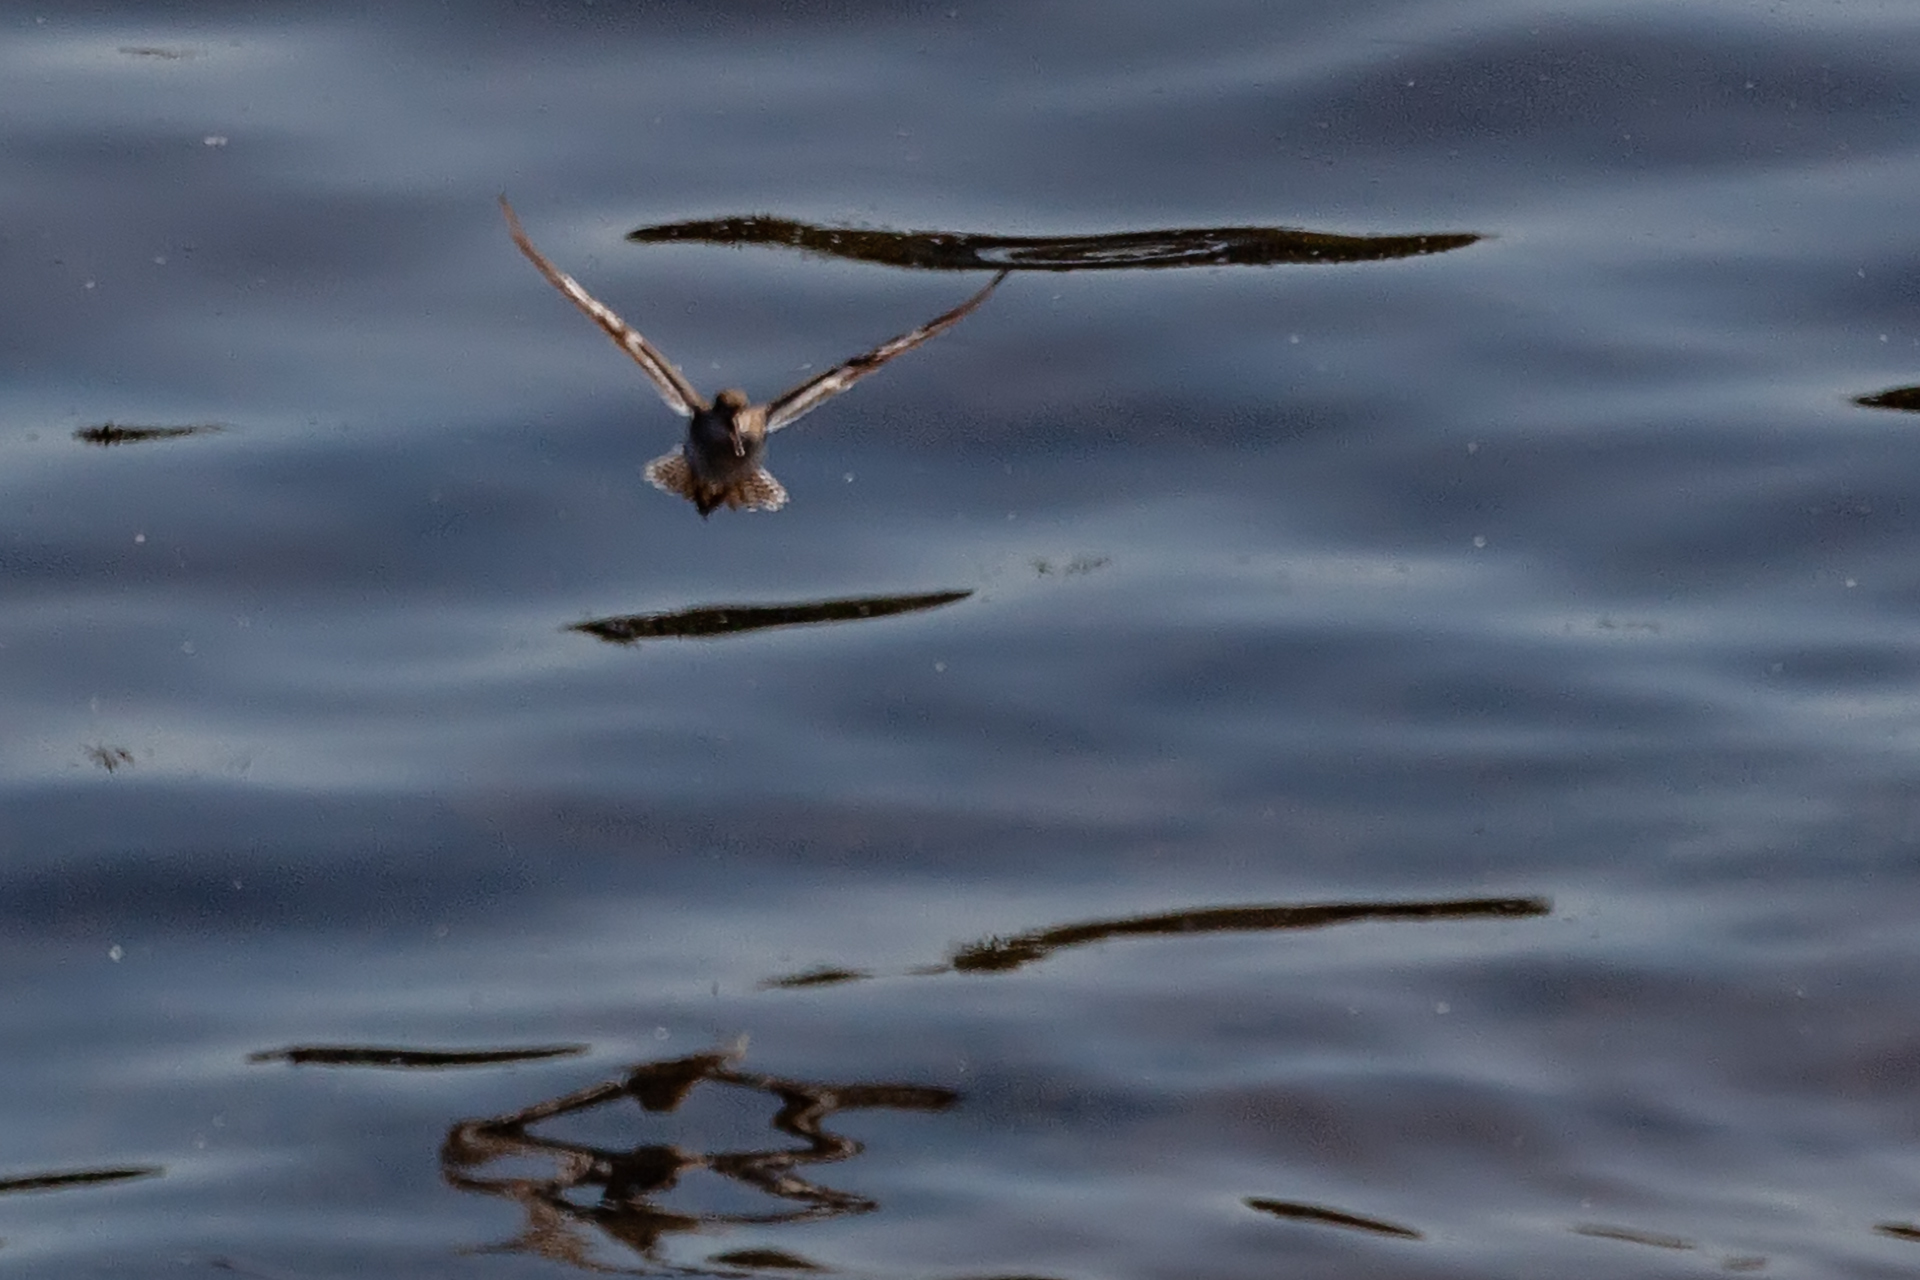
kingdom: Animalia
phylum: Chordata
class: Aves
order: Charadriiformes
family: Scolopacidae
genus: Actitis
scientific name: Actitis hypoleucos
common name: Common sandpiper
